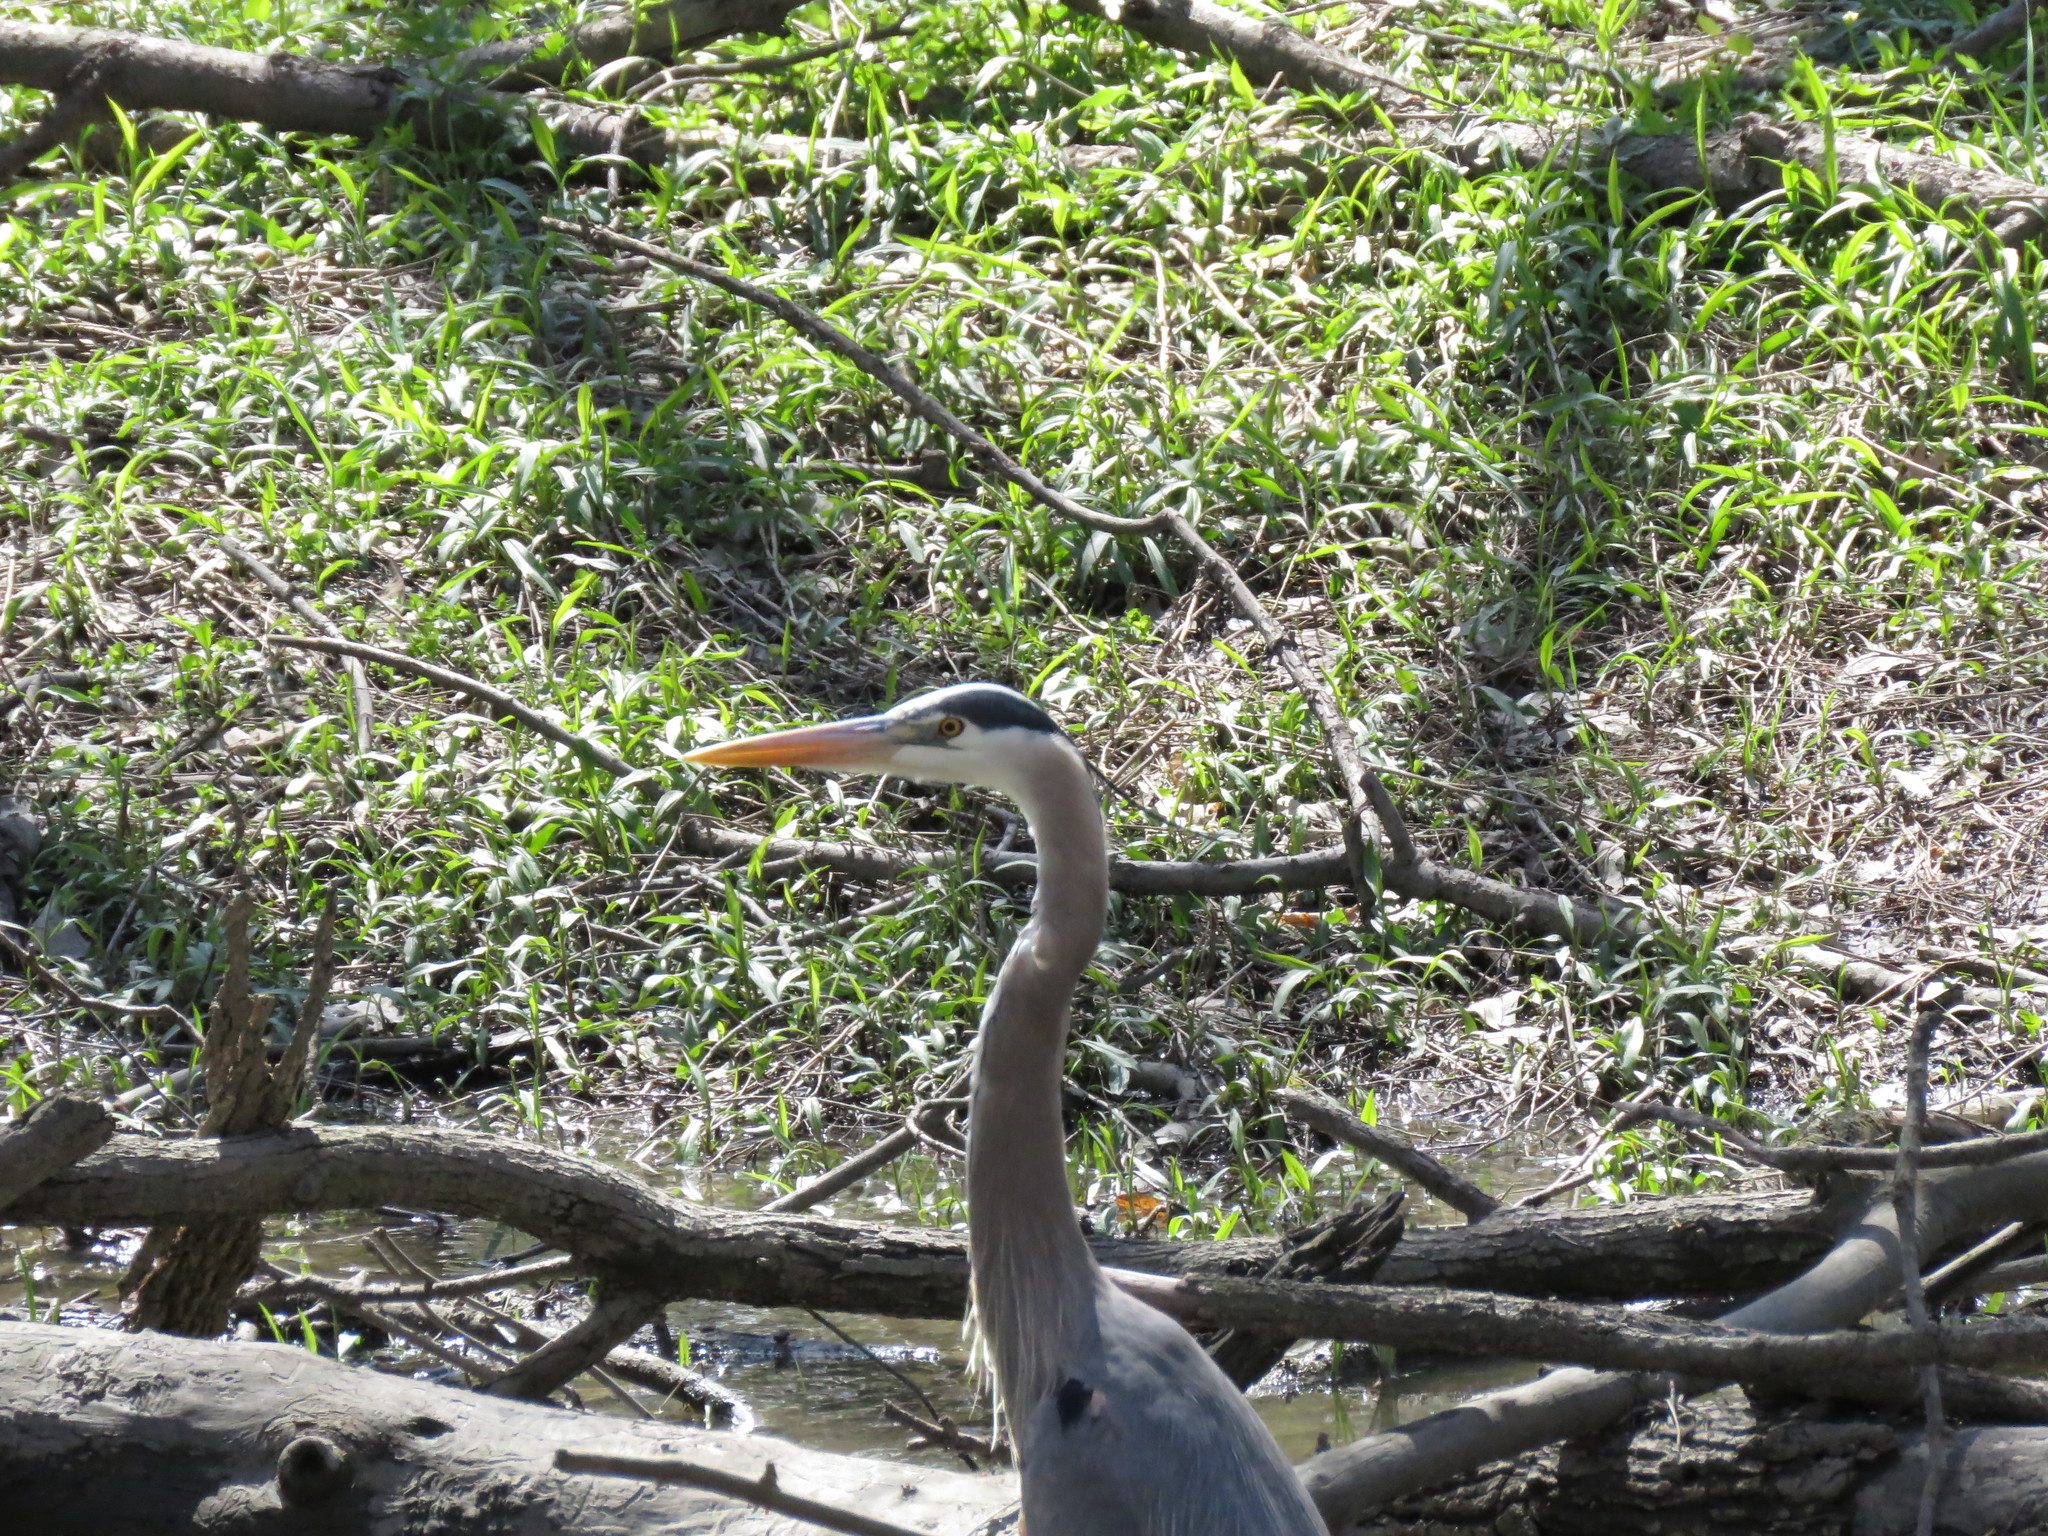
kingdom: Animalia
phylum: Chordata
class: Aves
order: Pelecaniformes
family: Ardeidae
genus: Ardea
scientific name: Ardea herodias
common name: Great blue heron
